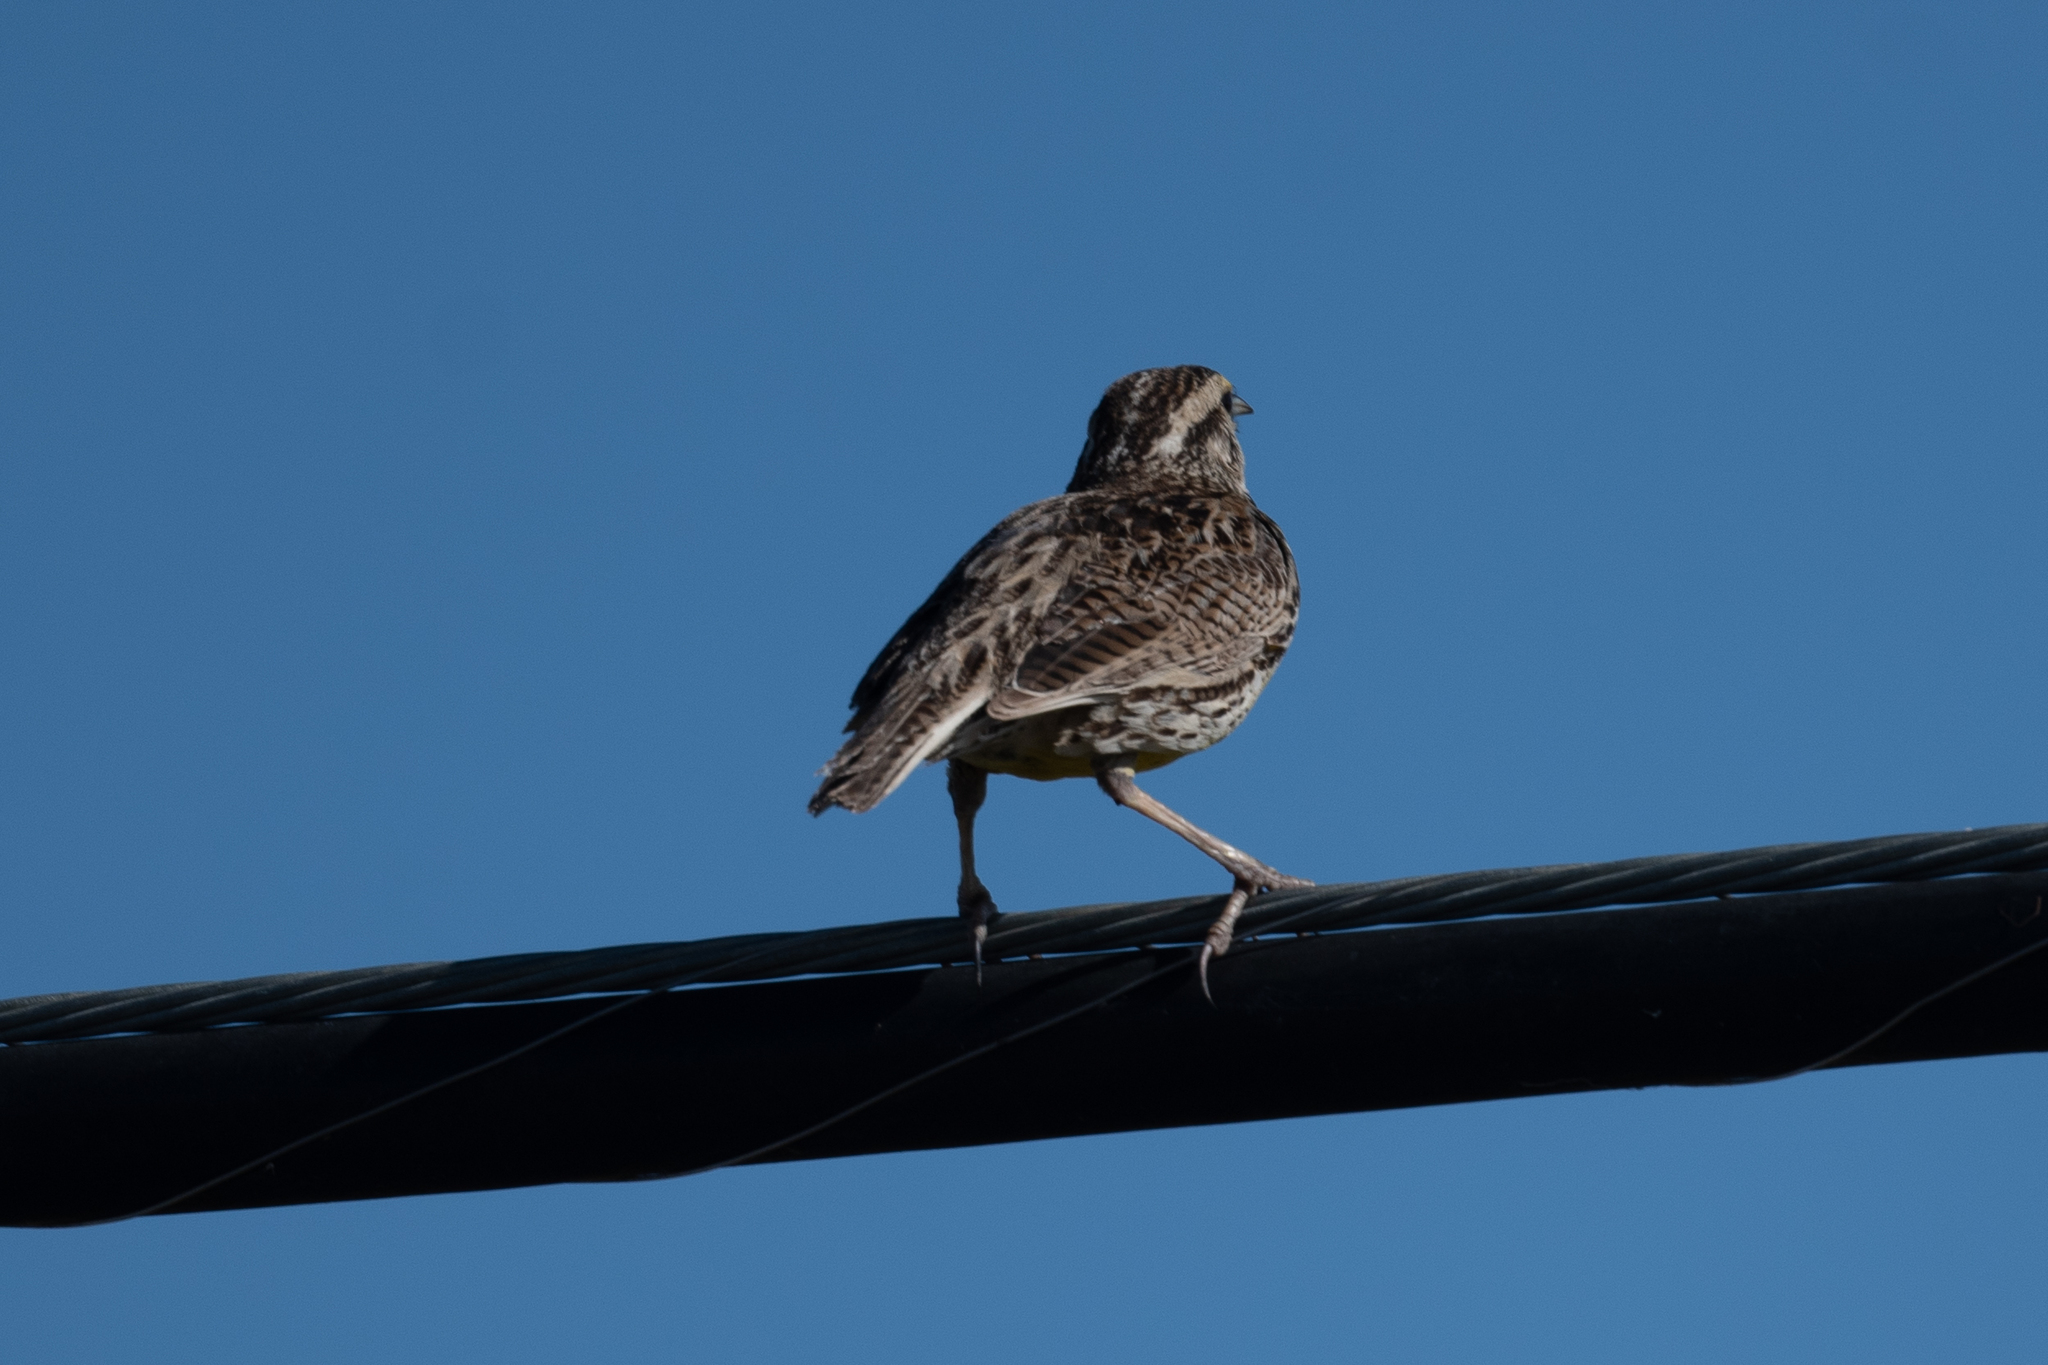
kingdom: Animalia
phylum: Chordata
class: Aves
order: Passeriformes
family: Icteridae
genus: Sturnella
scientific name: Sturnella neglecta
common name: Western meadowlark
